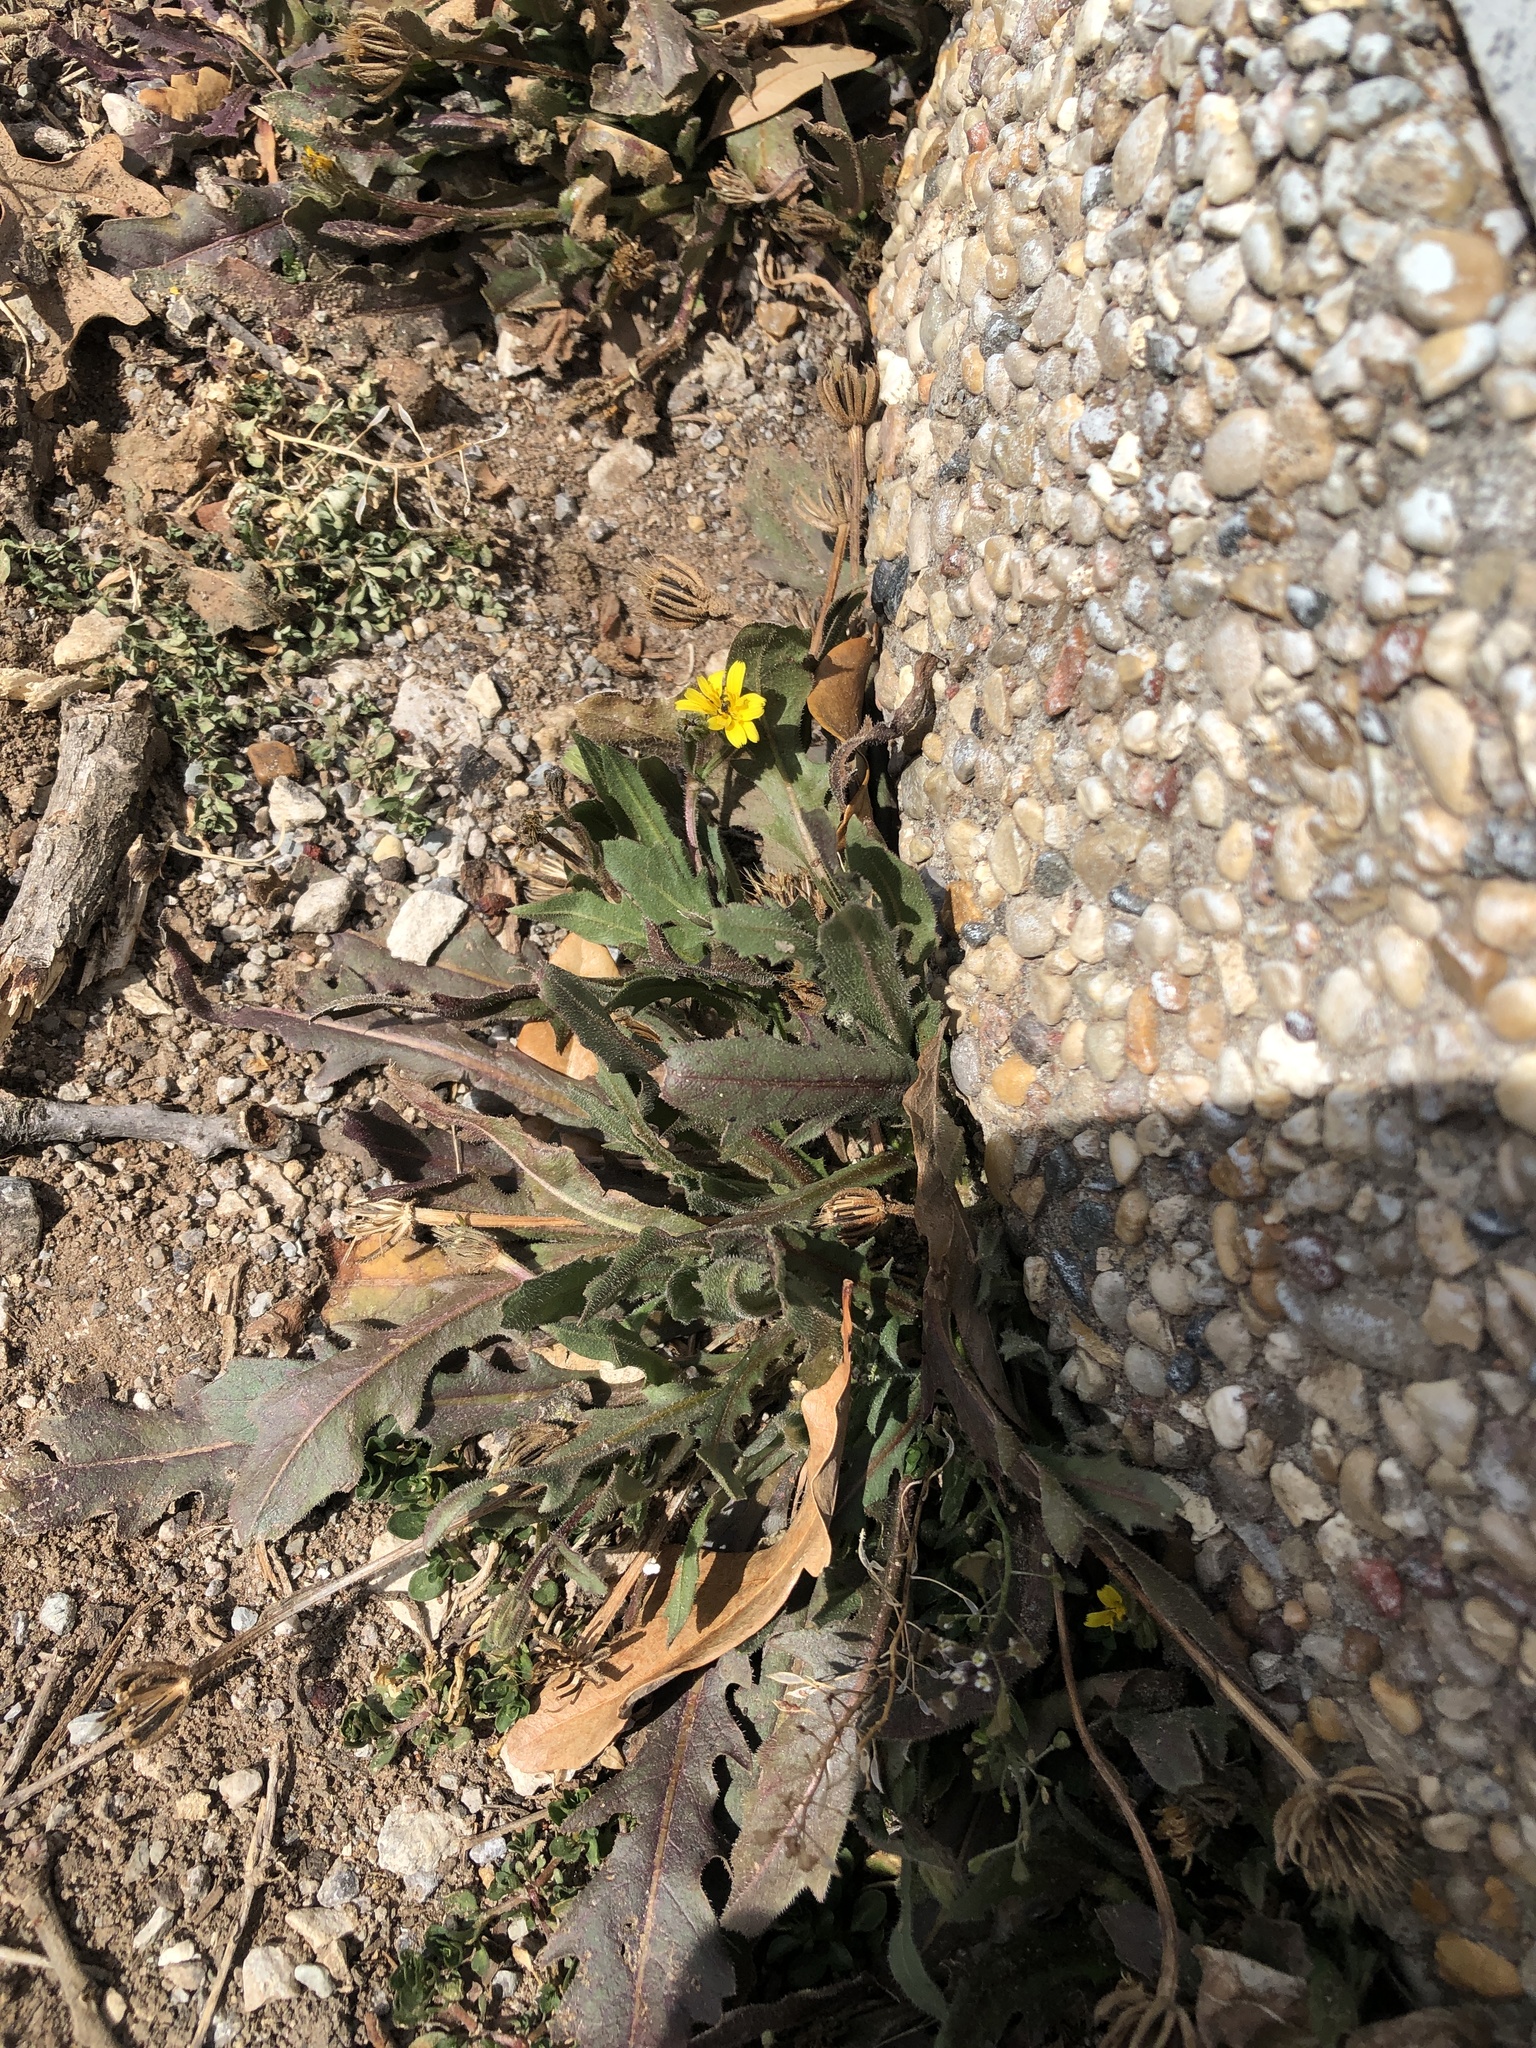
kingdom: Plantae
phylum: Tracheophyta
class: Magnoliopsida
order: Asterales
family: Asteraceae
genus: Hedypnois
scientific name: Hedypnois rhagadioloides
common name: Cretan weed
